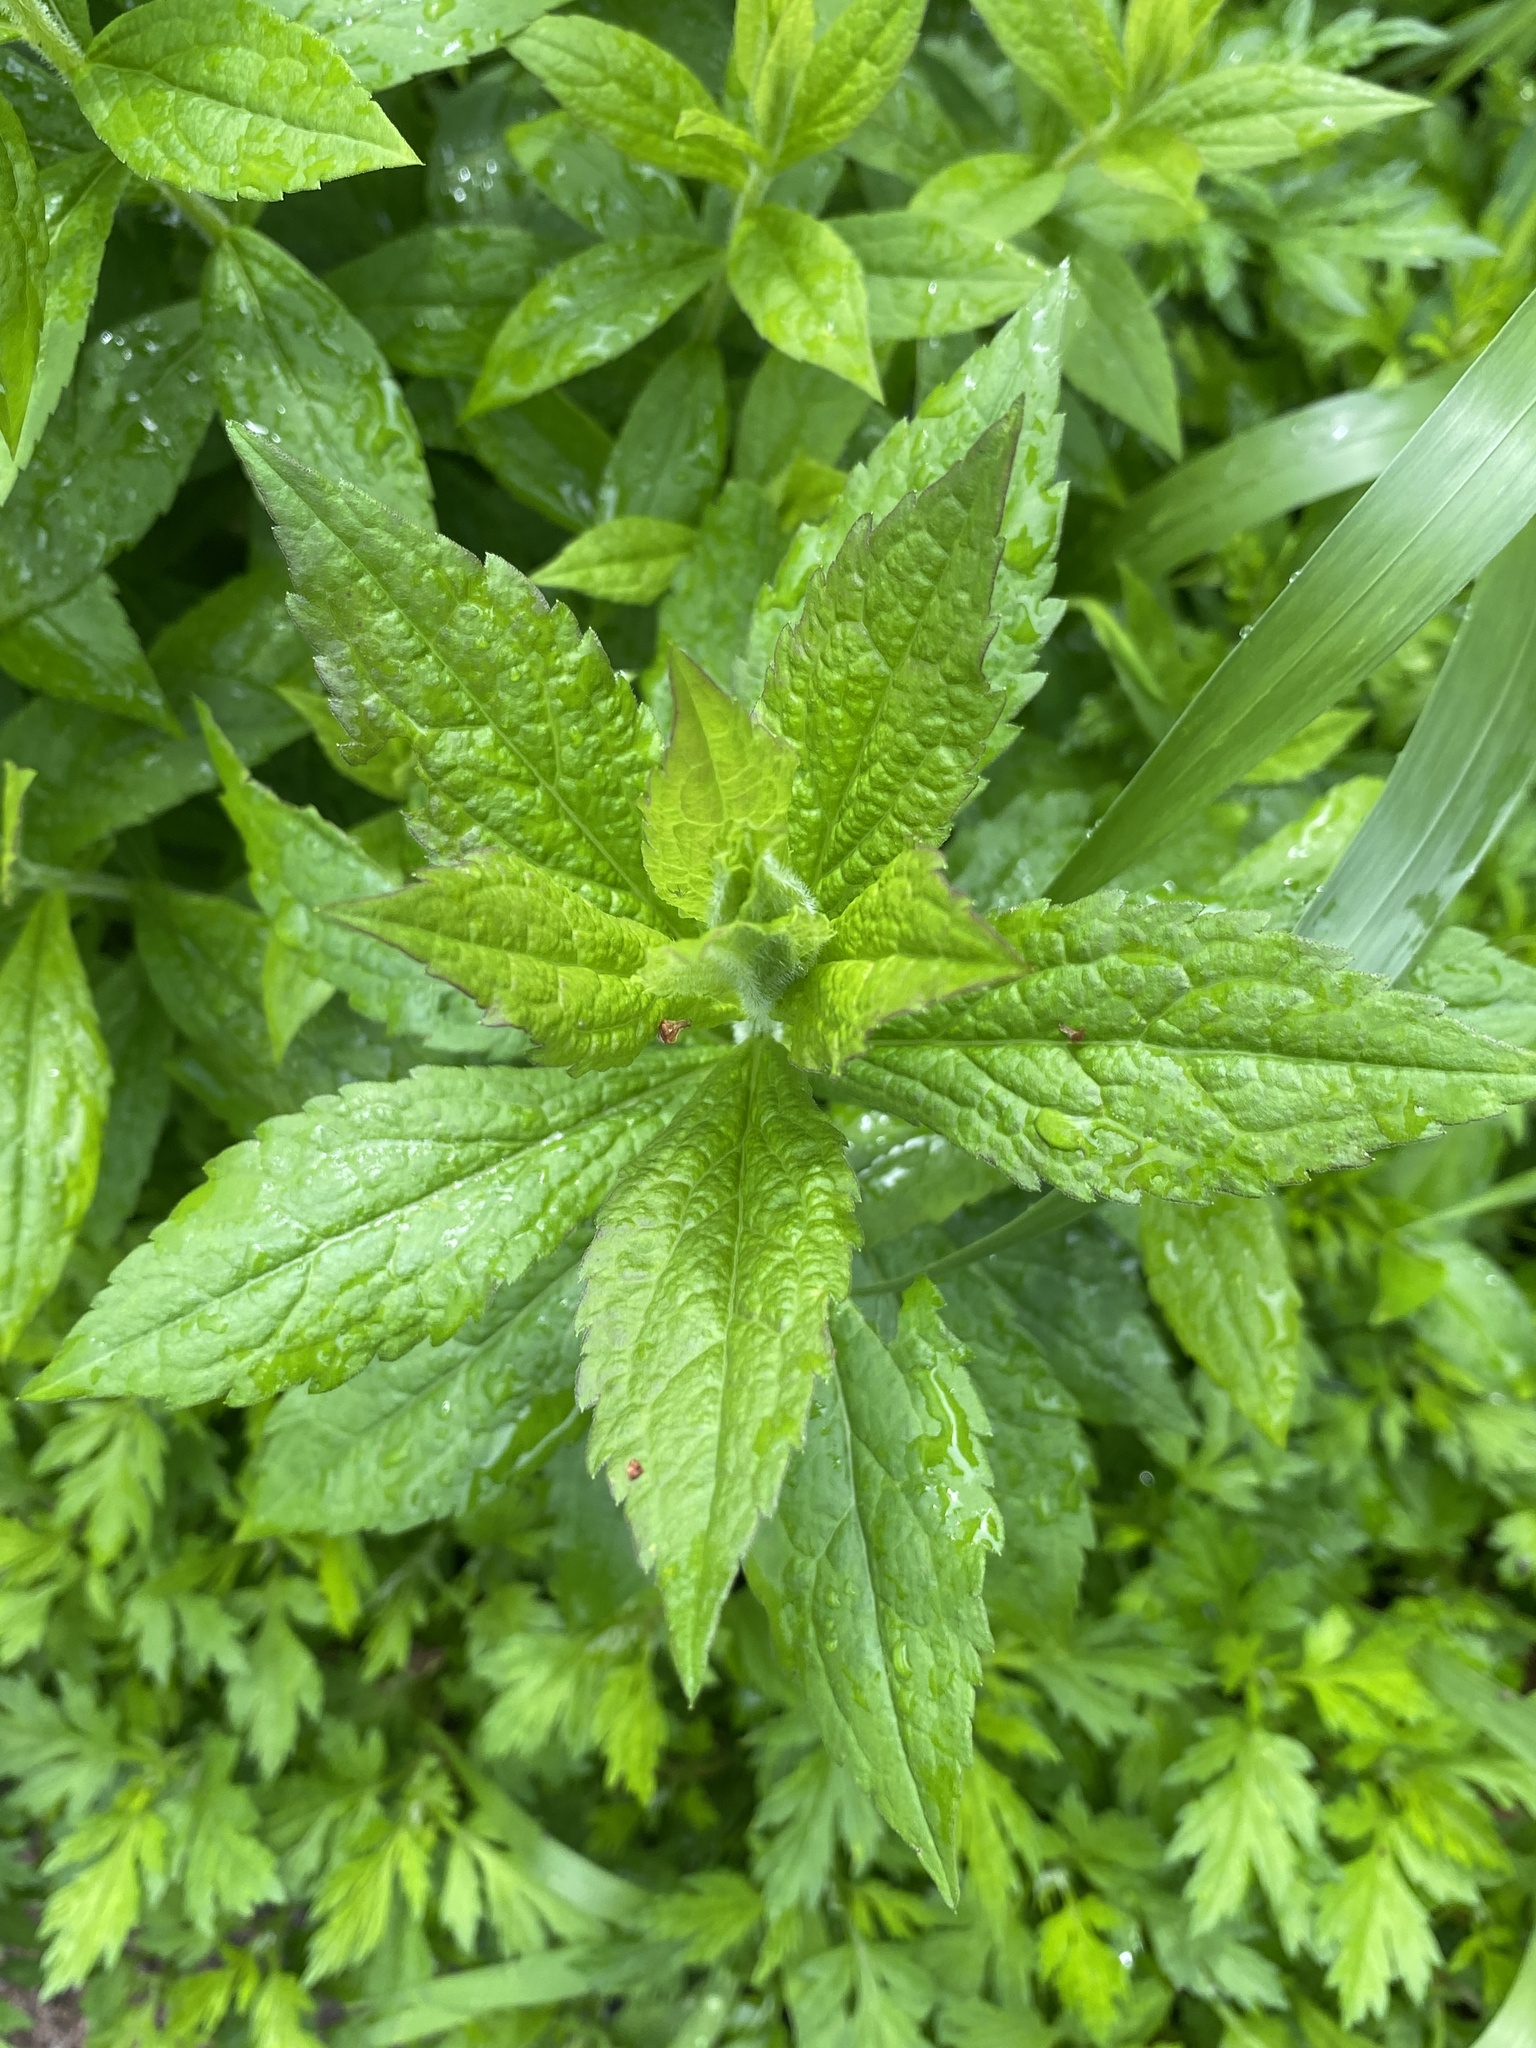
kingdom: Plantae
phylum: Tracheophyta
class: Magnoliopsida
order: Asterales
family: Asteraceae
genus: Solidago
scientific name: Solidago rugosa
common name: Rough-stemmed goldenrod
